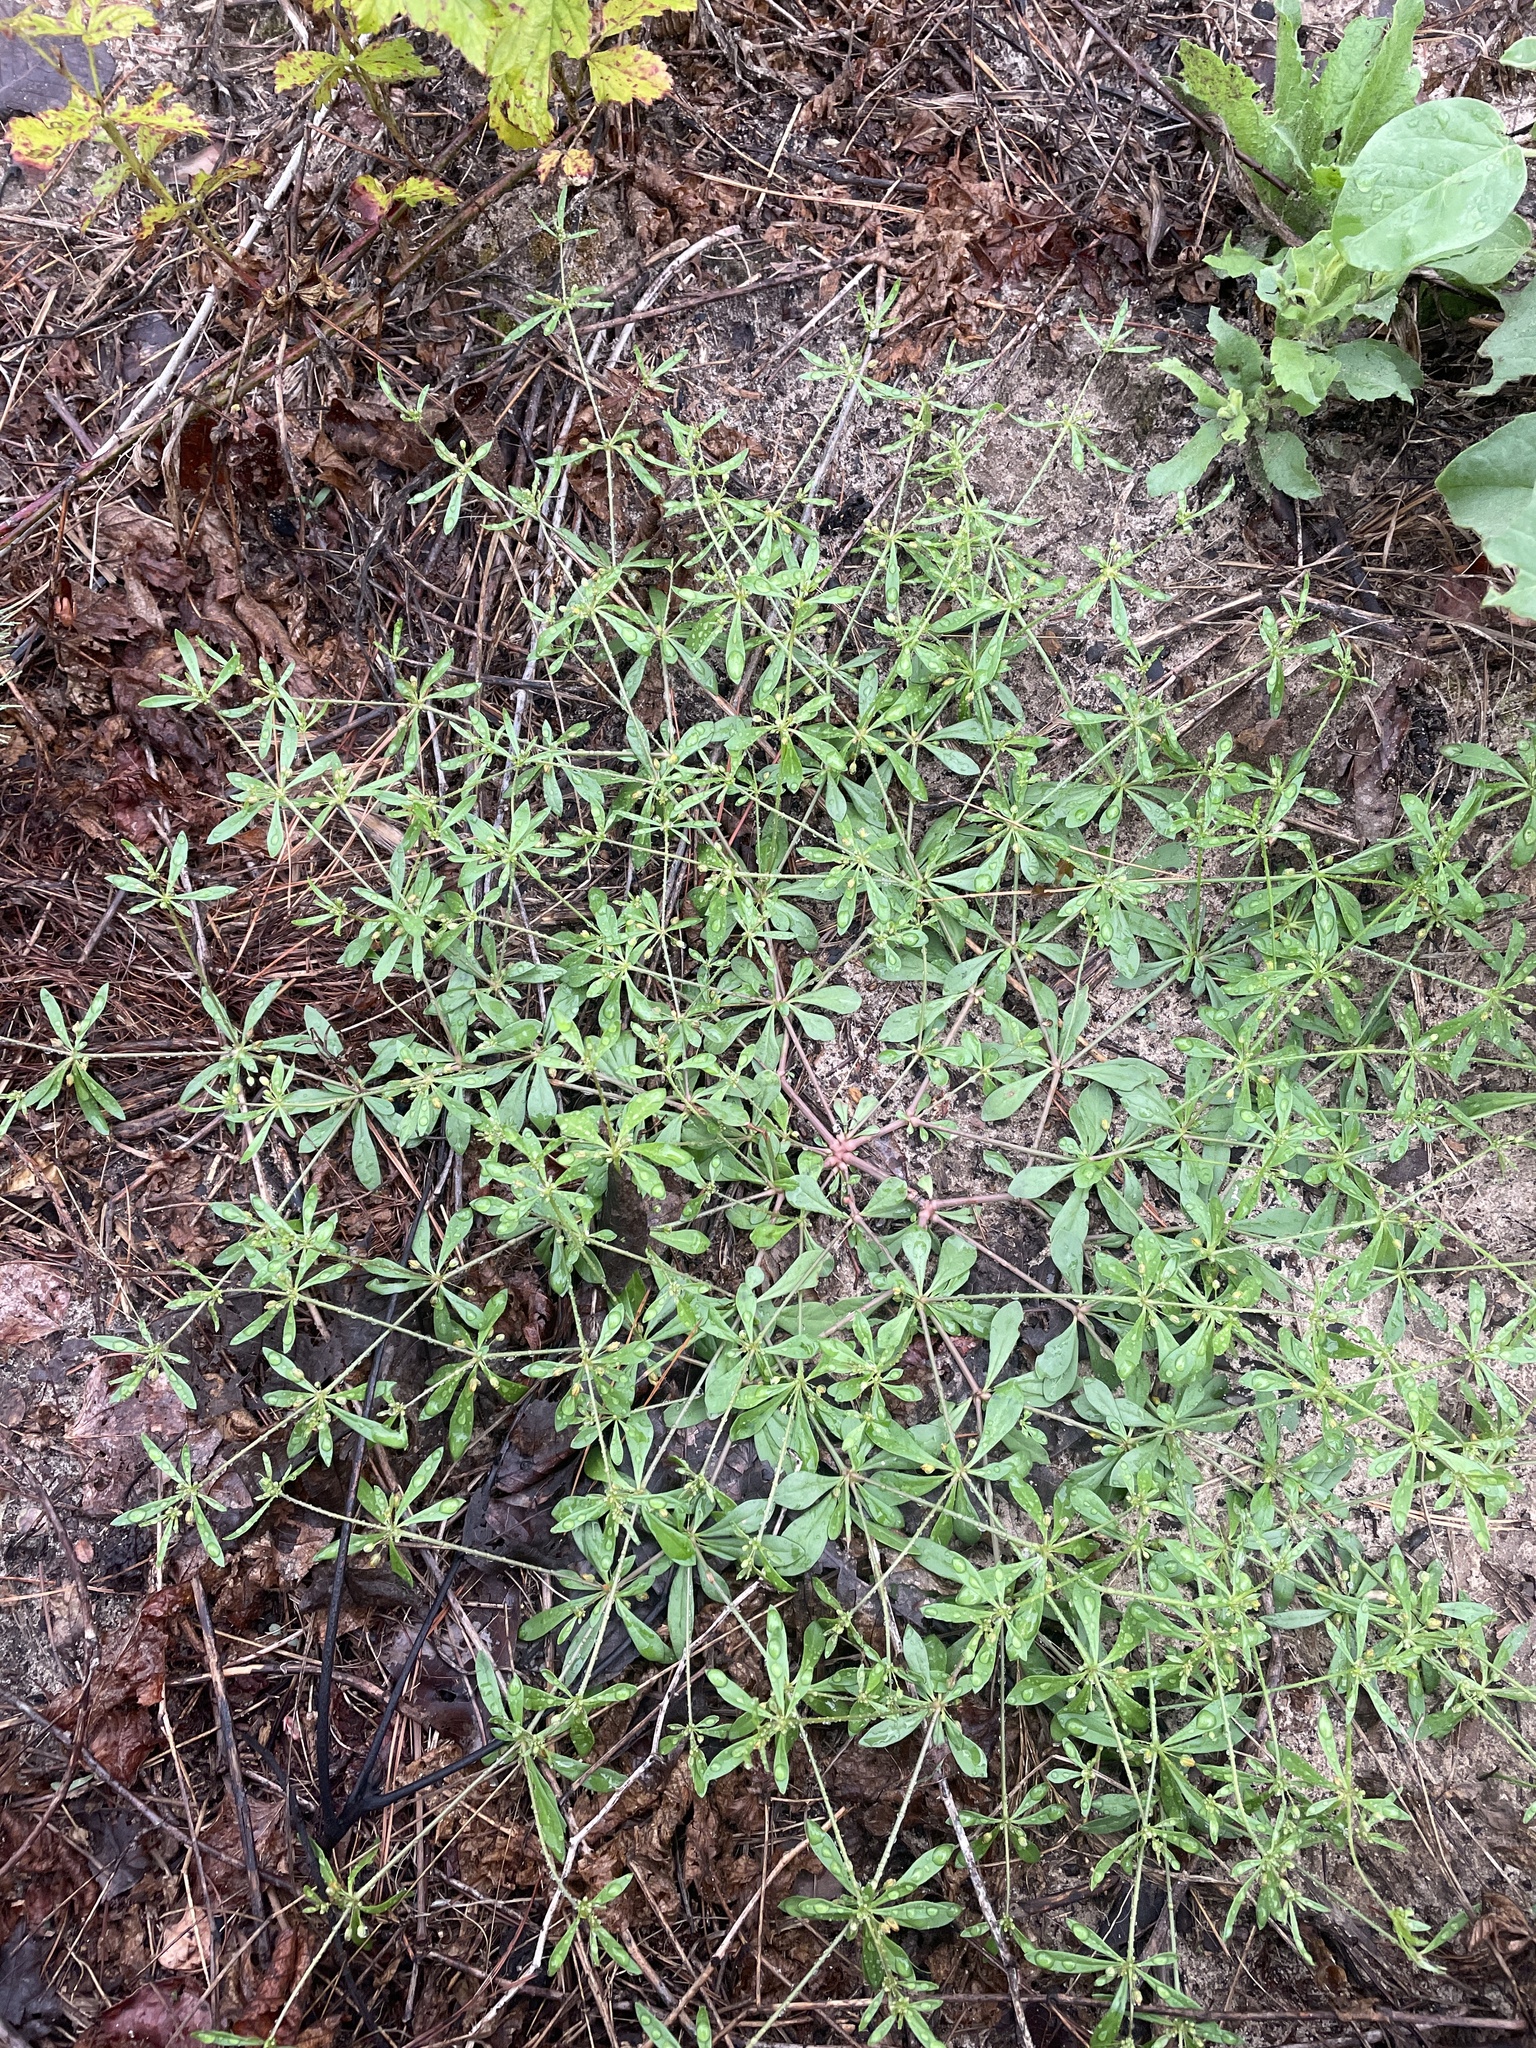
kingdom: Plantae
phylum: Tracheophyta
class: Magnoliopsida
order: Caryophyllales
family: Molluginaceae
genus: Mollugo
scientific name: Mollugo verticillata
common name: Green carpetweed
